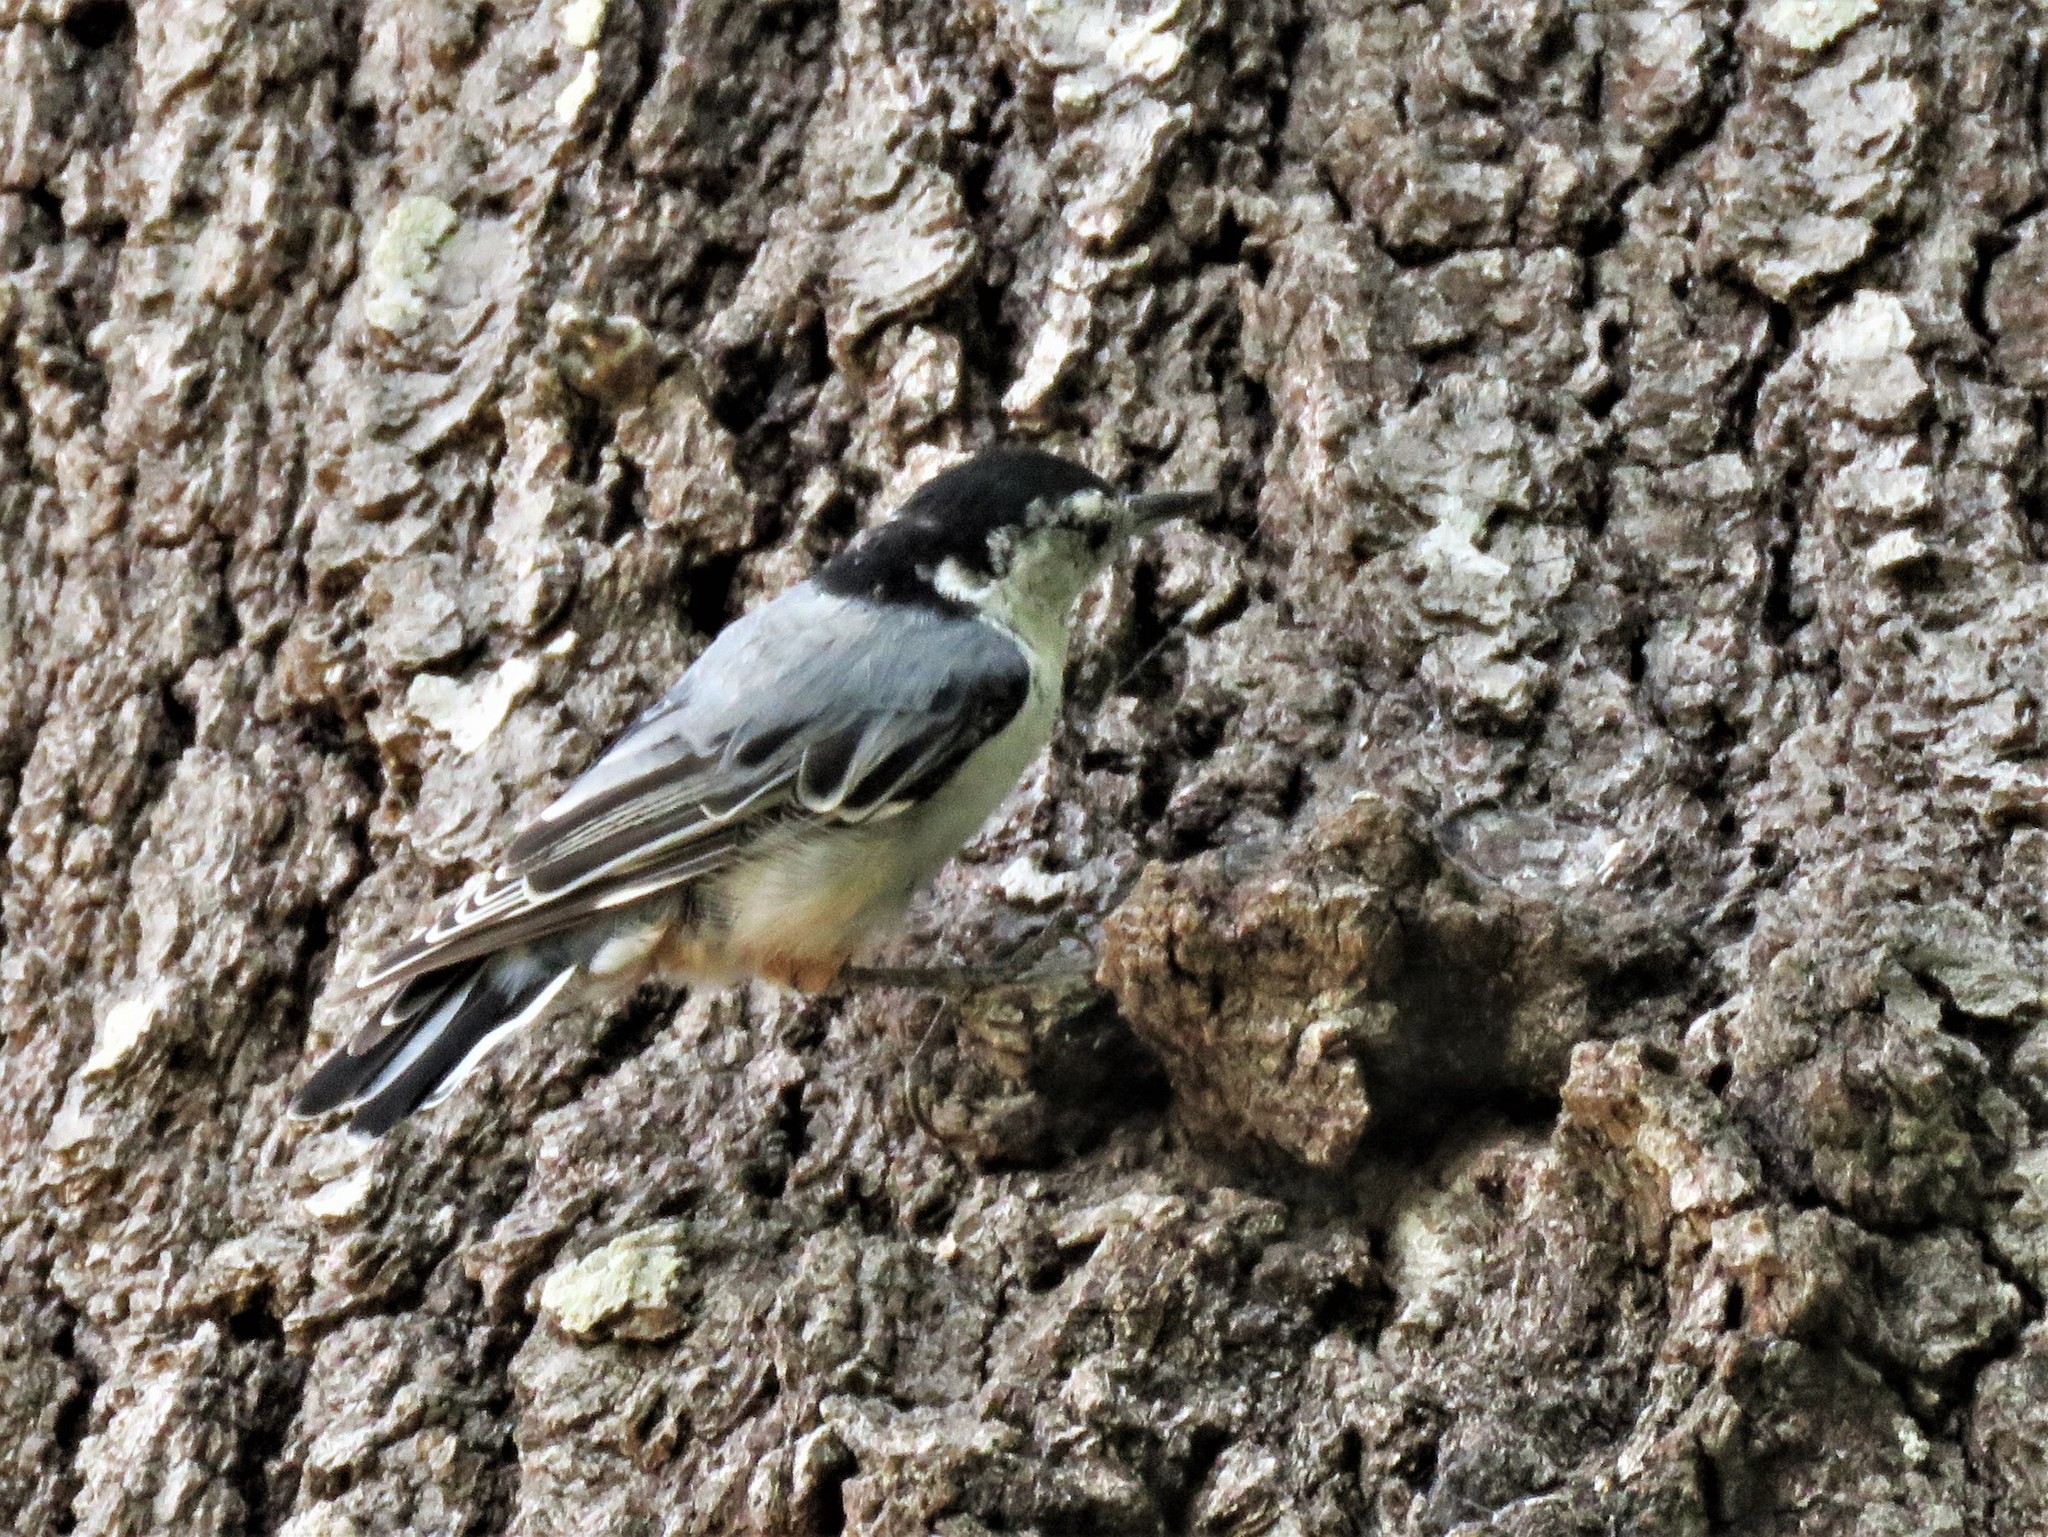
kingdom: Animalia
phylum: Chordata
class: Aves
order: Passeriformes
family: Sittidae
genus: Sitta
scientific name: Sitta carolinensis
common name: White-breasted nuthatch
